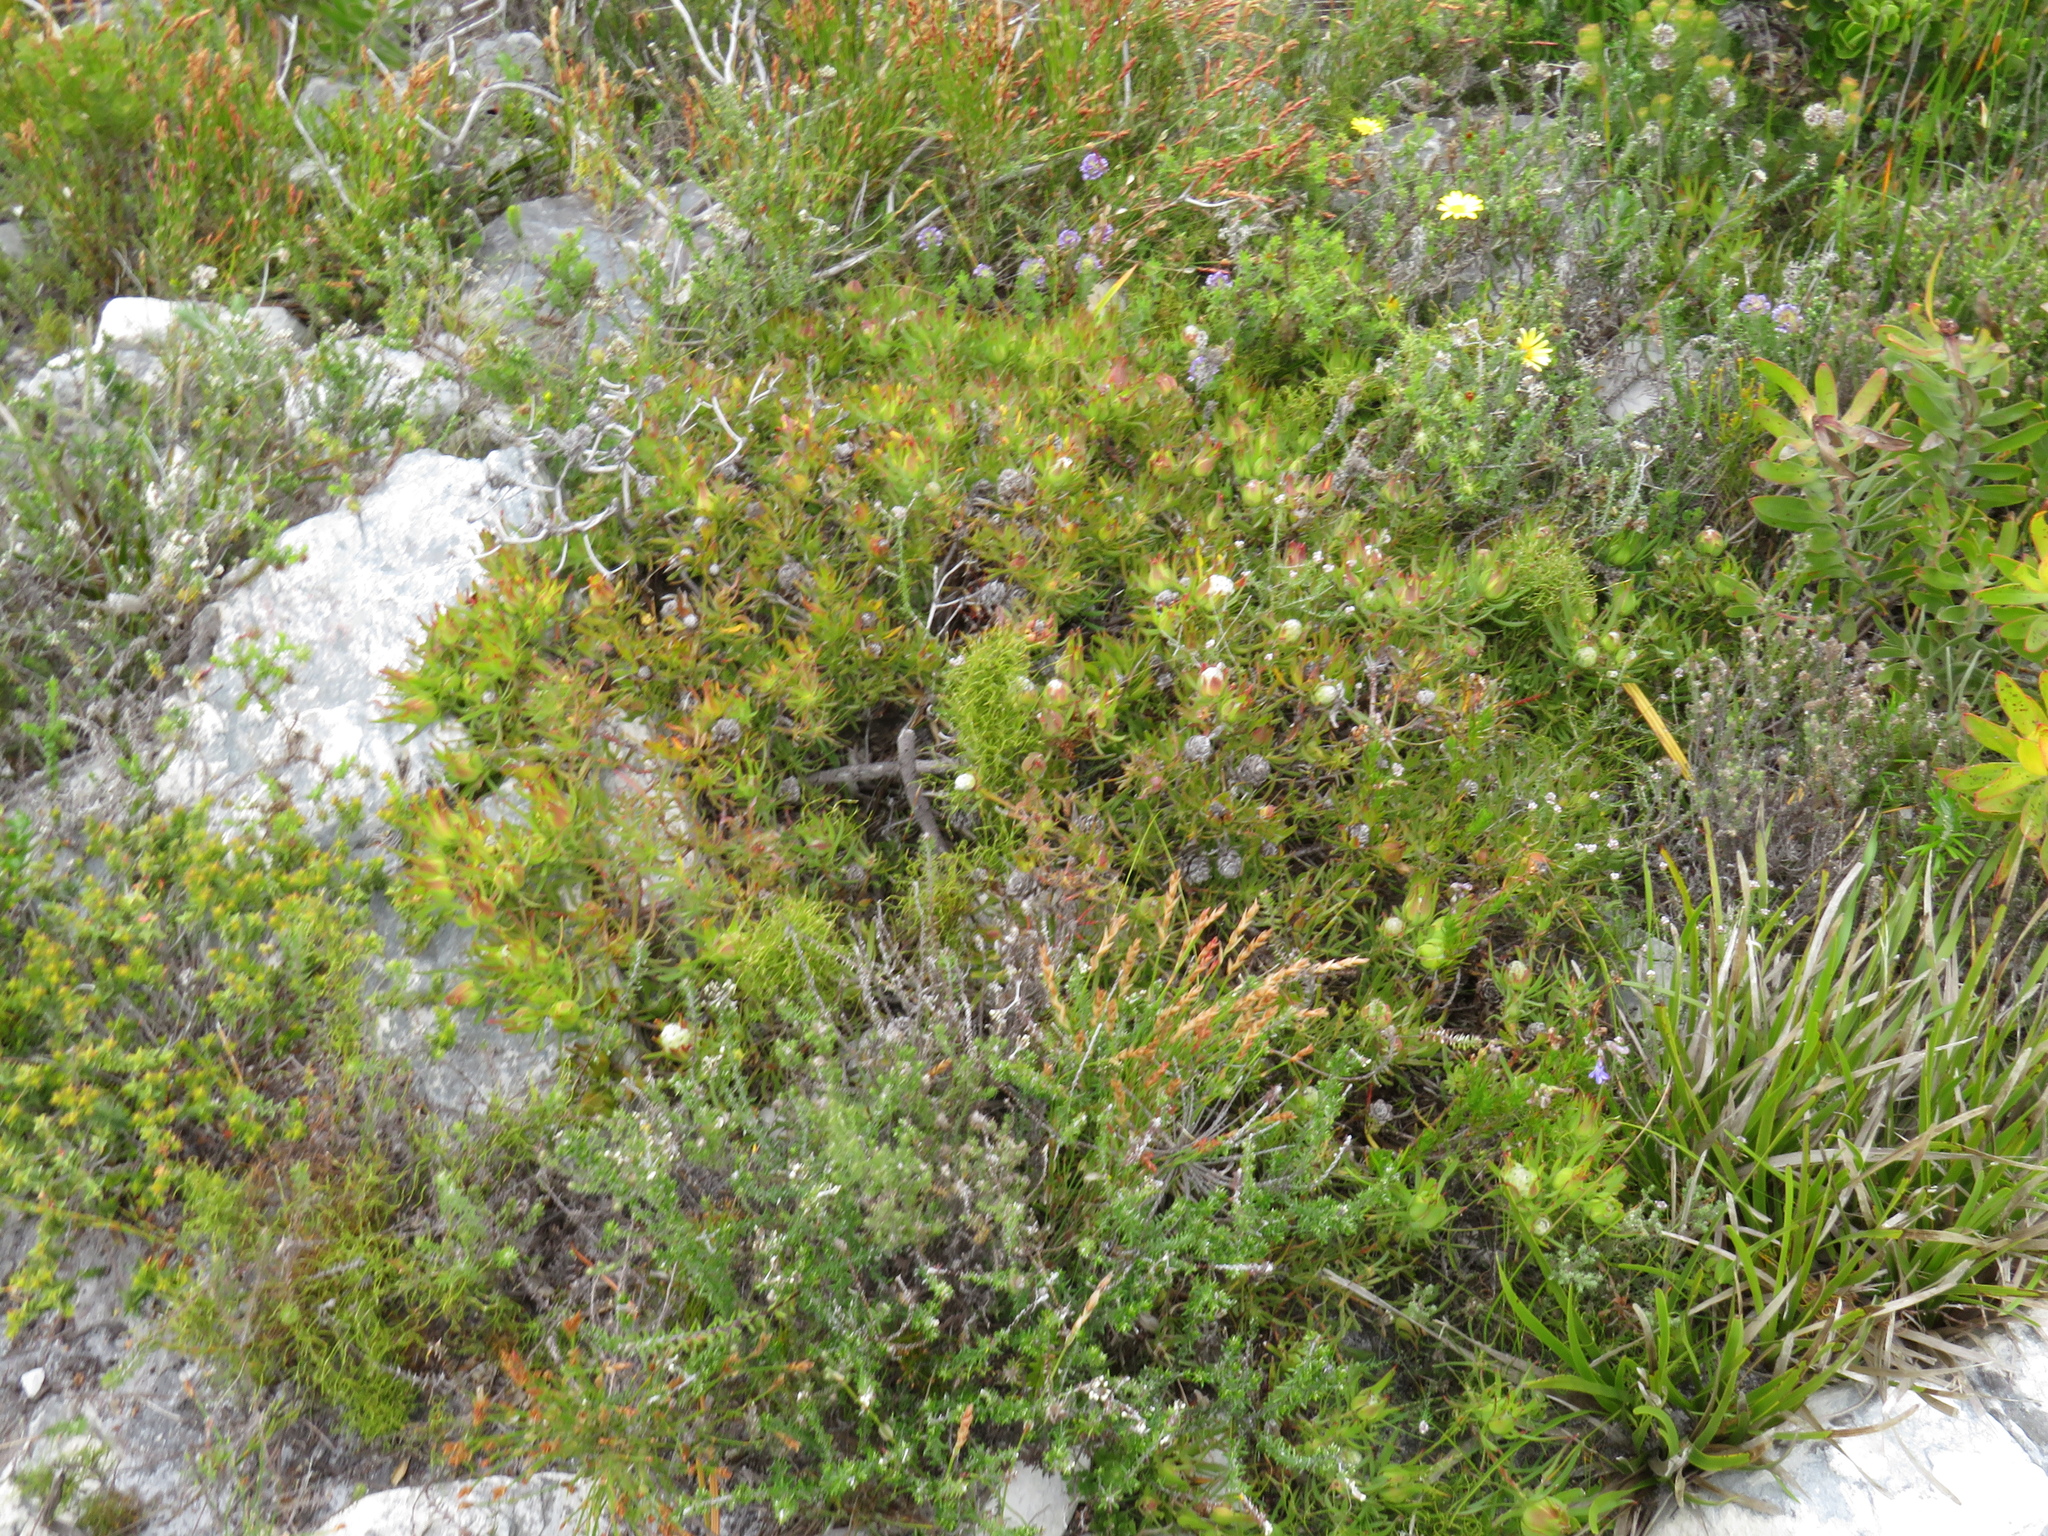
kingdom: Plantae
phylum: Tracheophyta
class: Magnoliopsida
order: Proteales
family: Proteaceae
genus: Leucadendron
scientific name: Leucadendron salignum
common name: Common sunshine conebush
